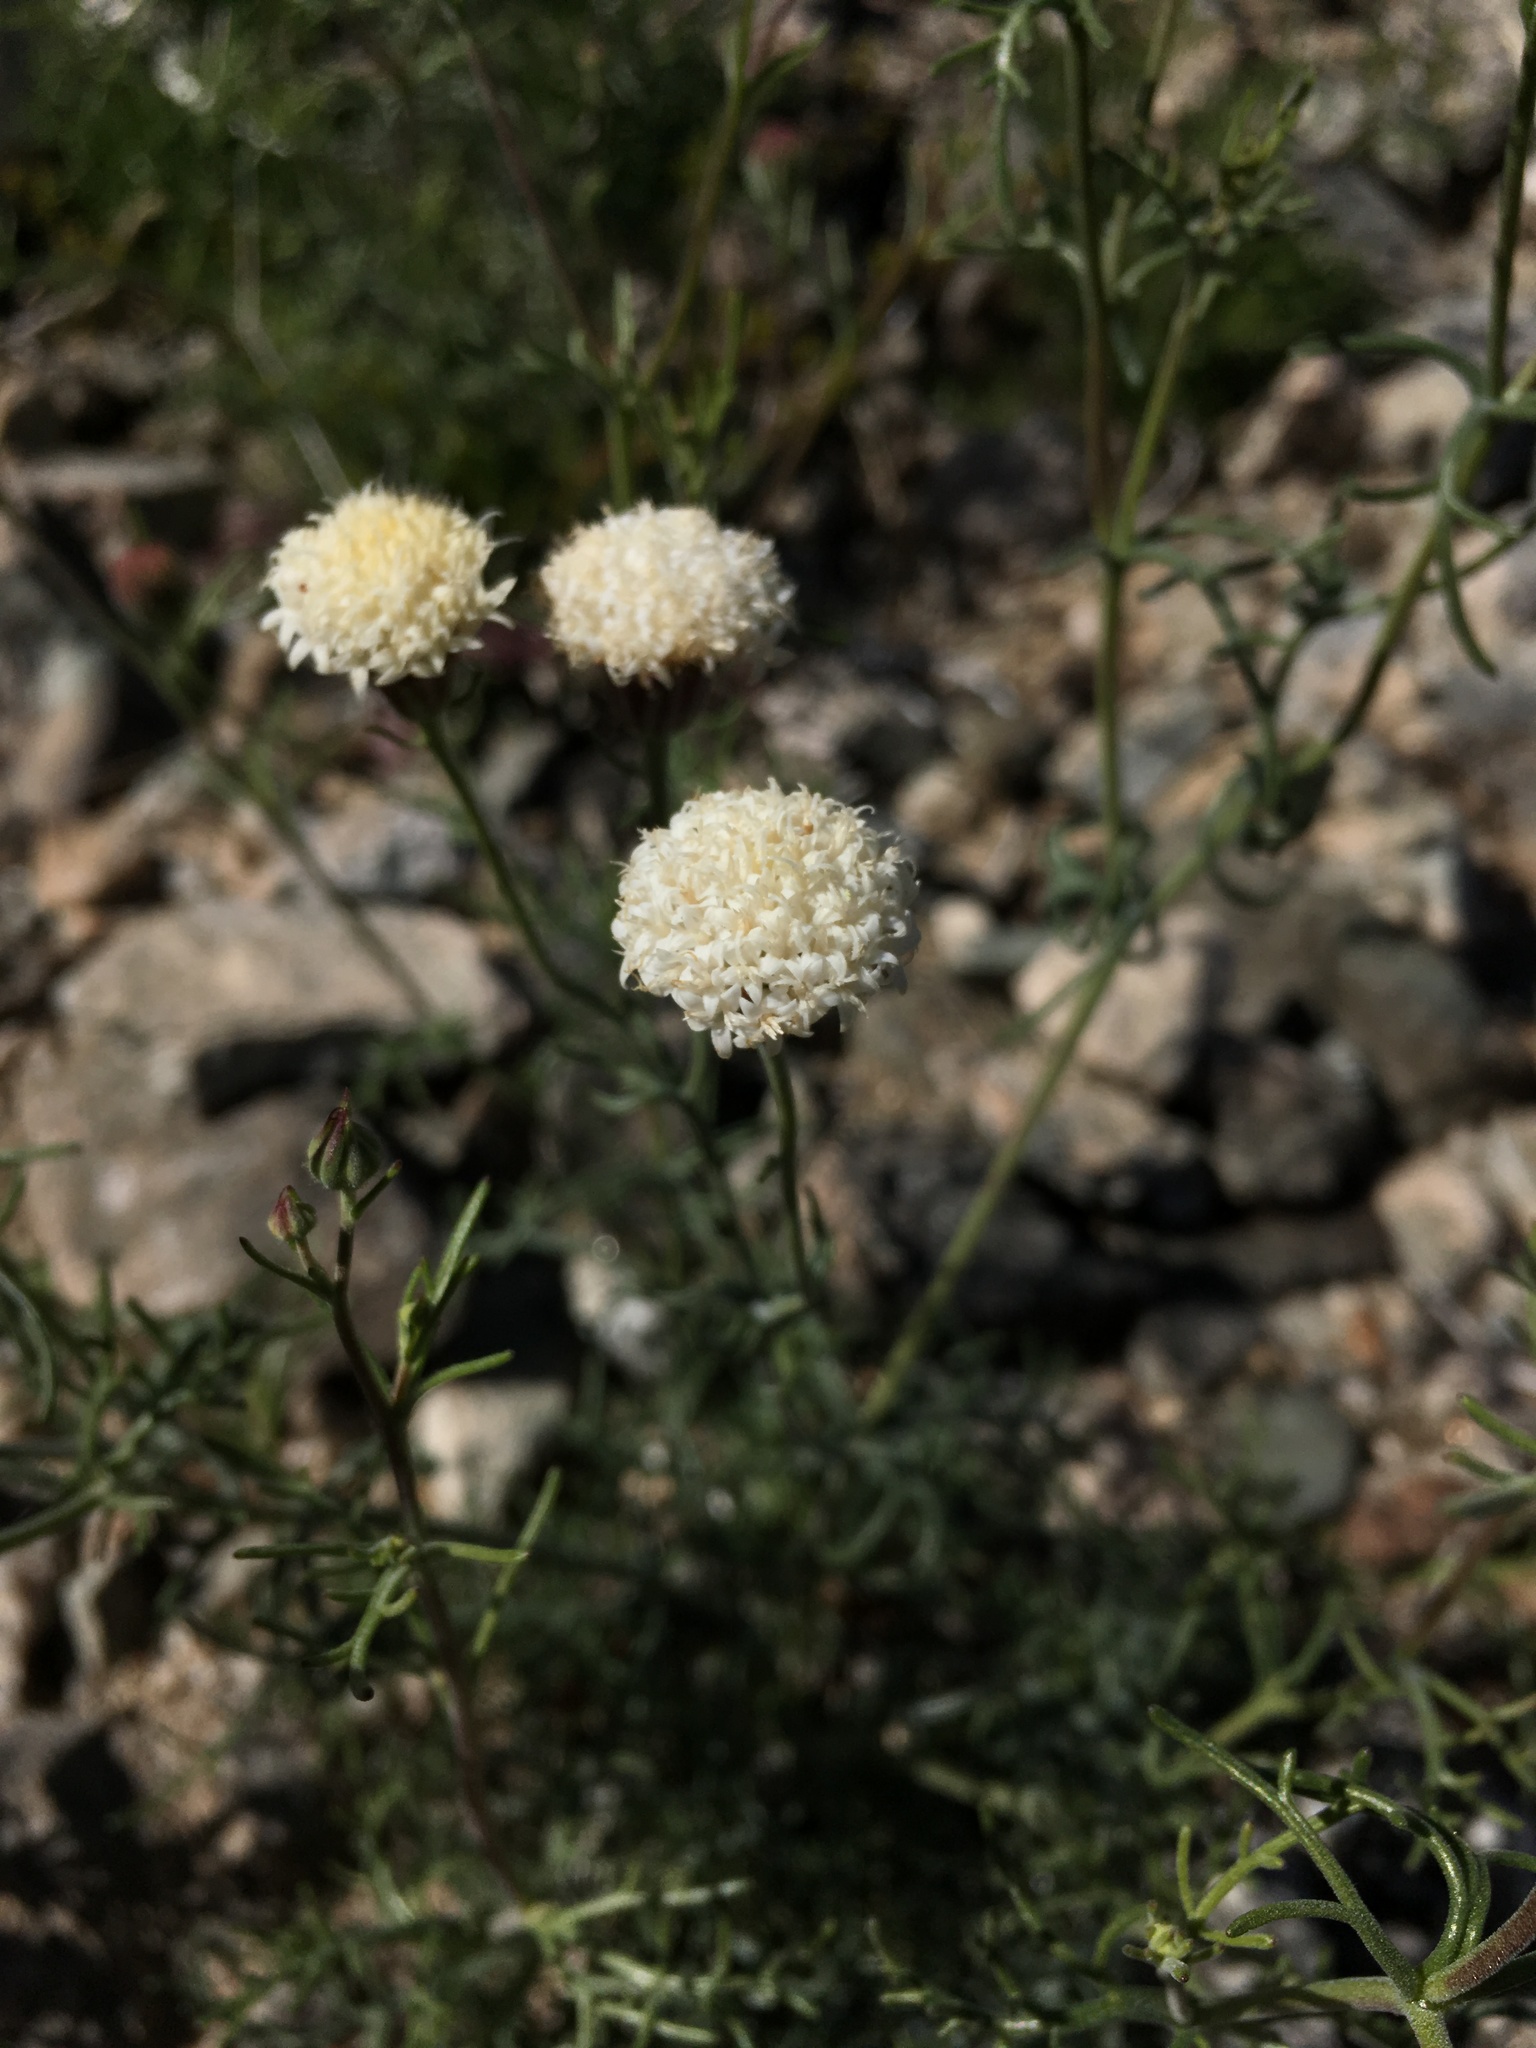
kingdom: Plantae
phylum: Tracheophyta
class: Magnoliopsida
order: Asterales
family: Asteraceae
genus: Chaenactis
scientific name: Chaenactis carphoclinia
